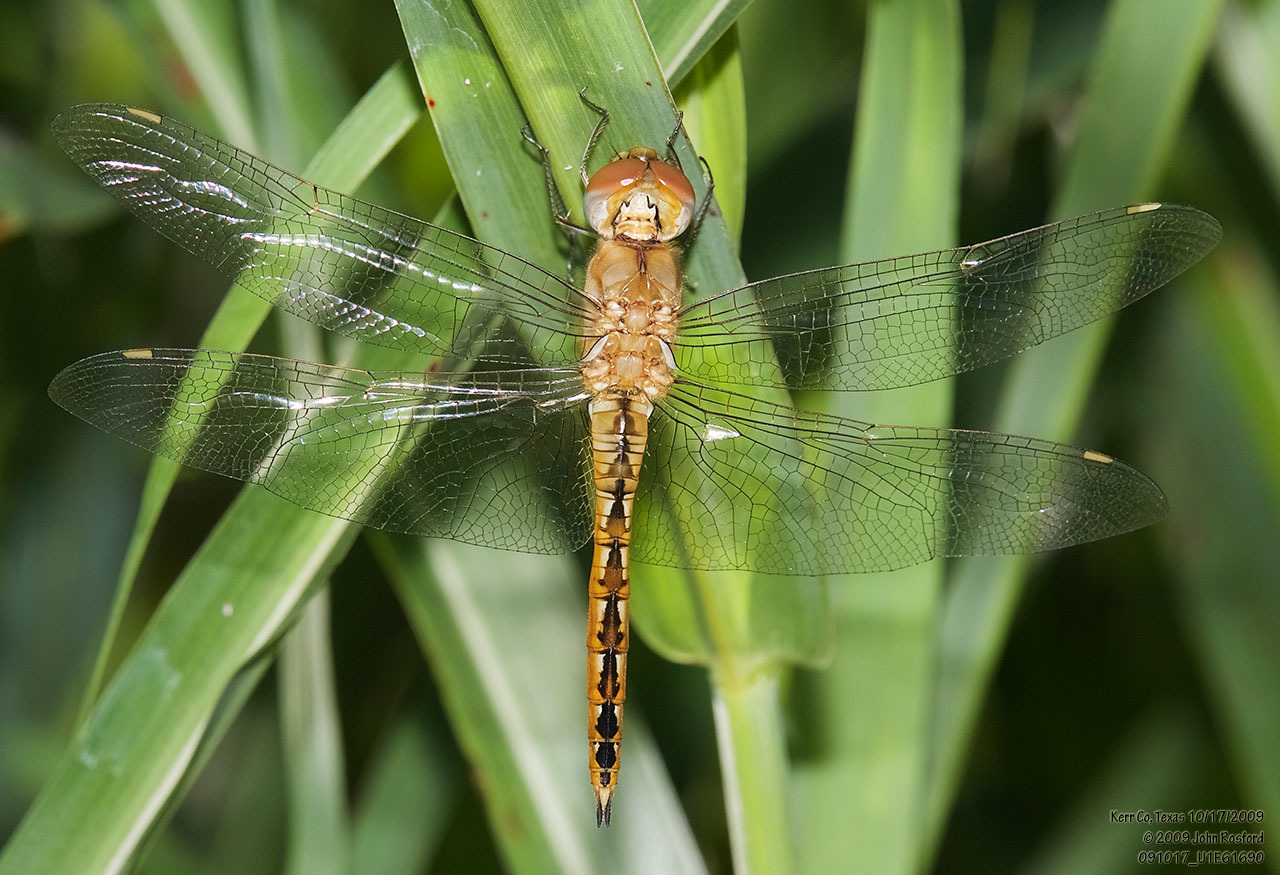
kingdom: Animalia
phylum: Arthropoda
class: Insecta
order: Odonata
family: Libellulidae
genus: Pantala
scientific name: Pantala flavescens
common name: Wandering glider
